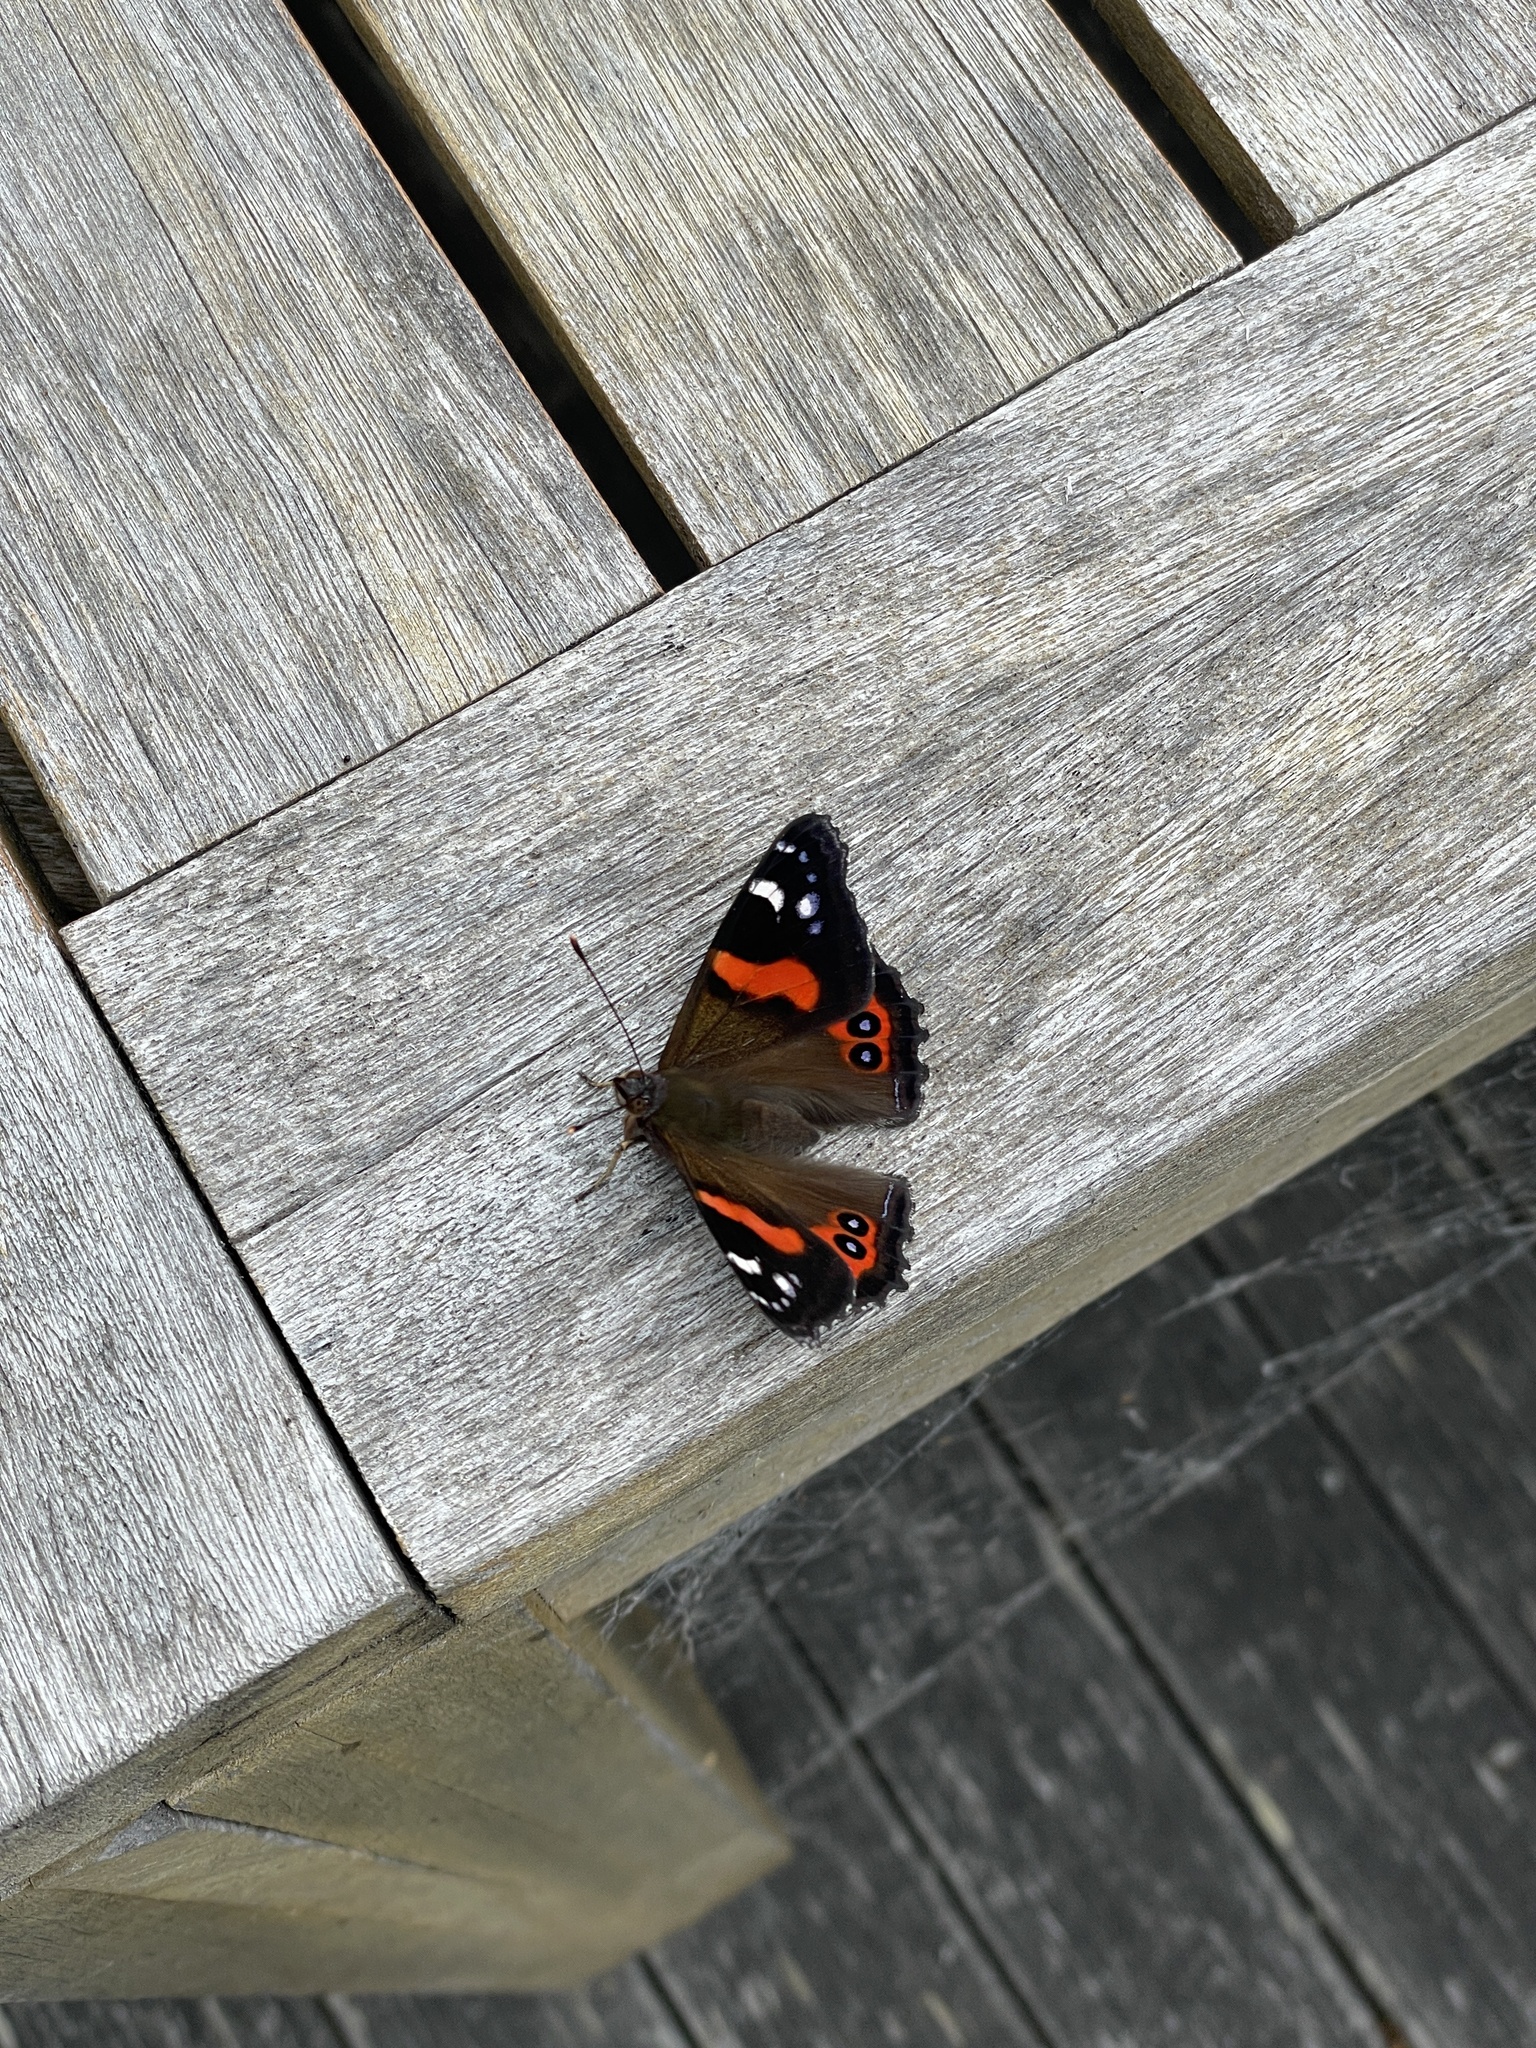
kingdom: Animalia
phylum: Arthropoda
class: Insecta
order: Lepidoptera
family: Nymphalidae
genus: Vanessa
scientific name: Vanessa gonerilla
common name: New zealand red admiral
